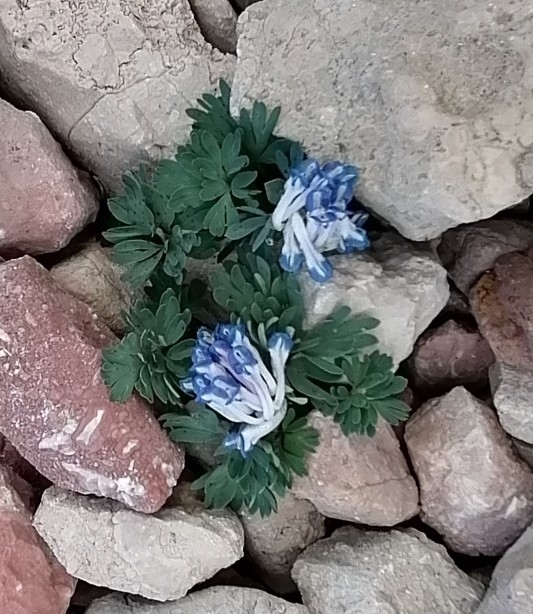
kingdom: Plantae
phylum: Tracheophyta
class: Magnoliopsida
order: Ranunculales
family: Papaveraceae
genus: Corydalis
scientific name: Corydalis alpestris
